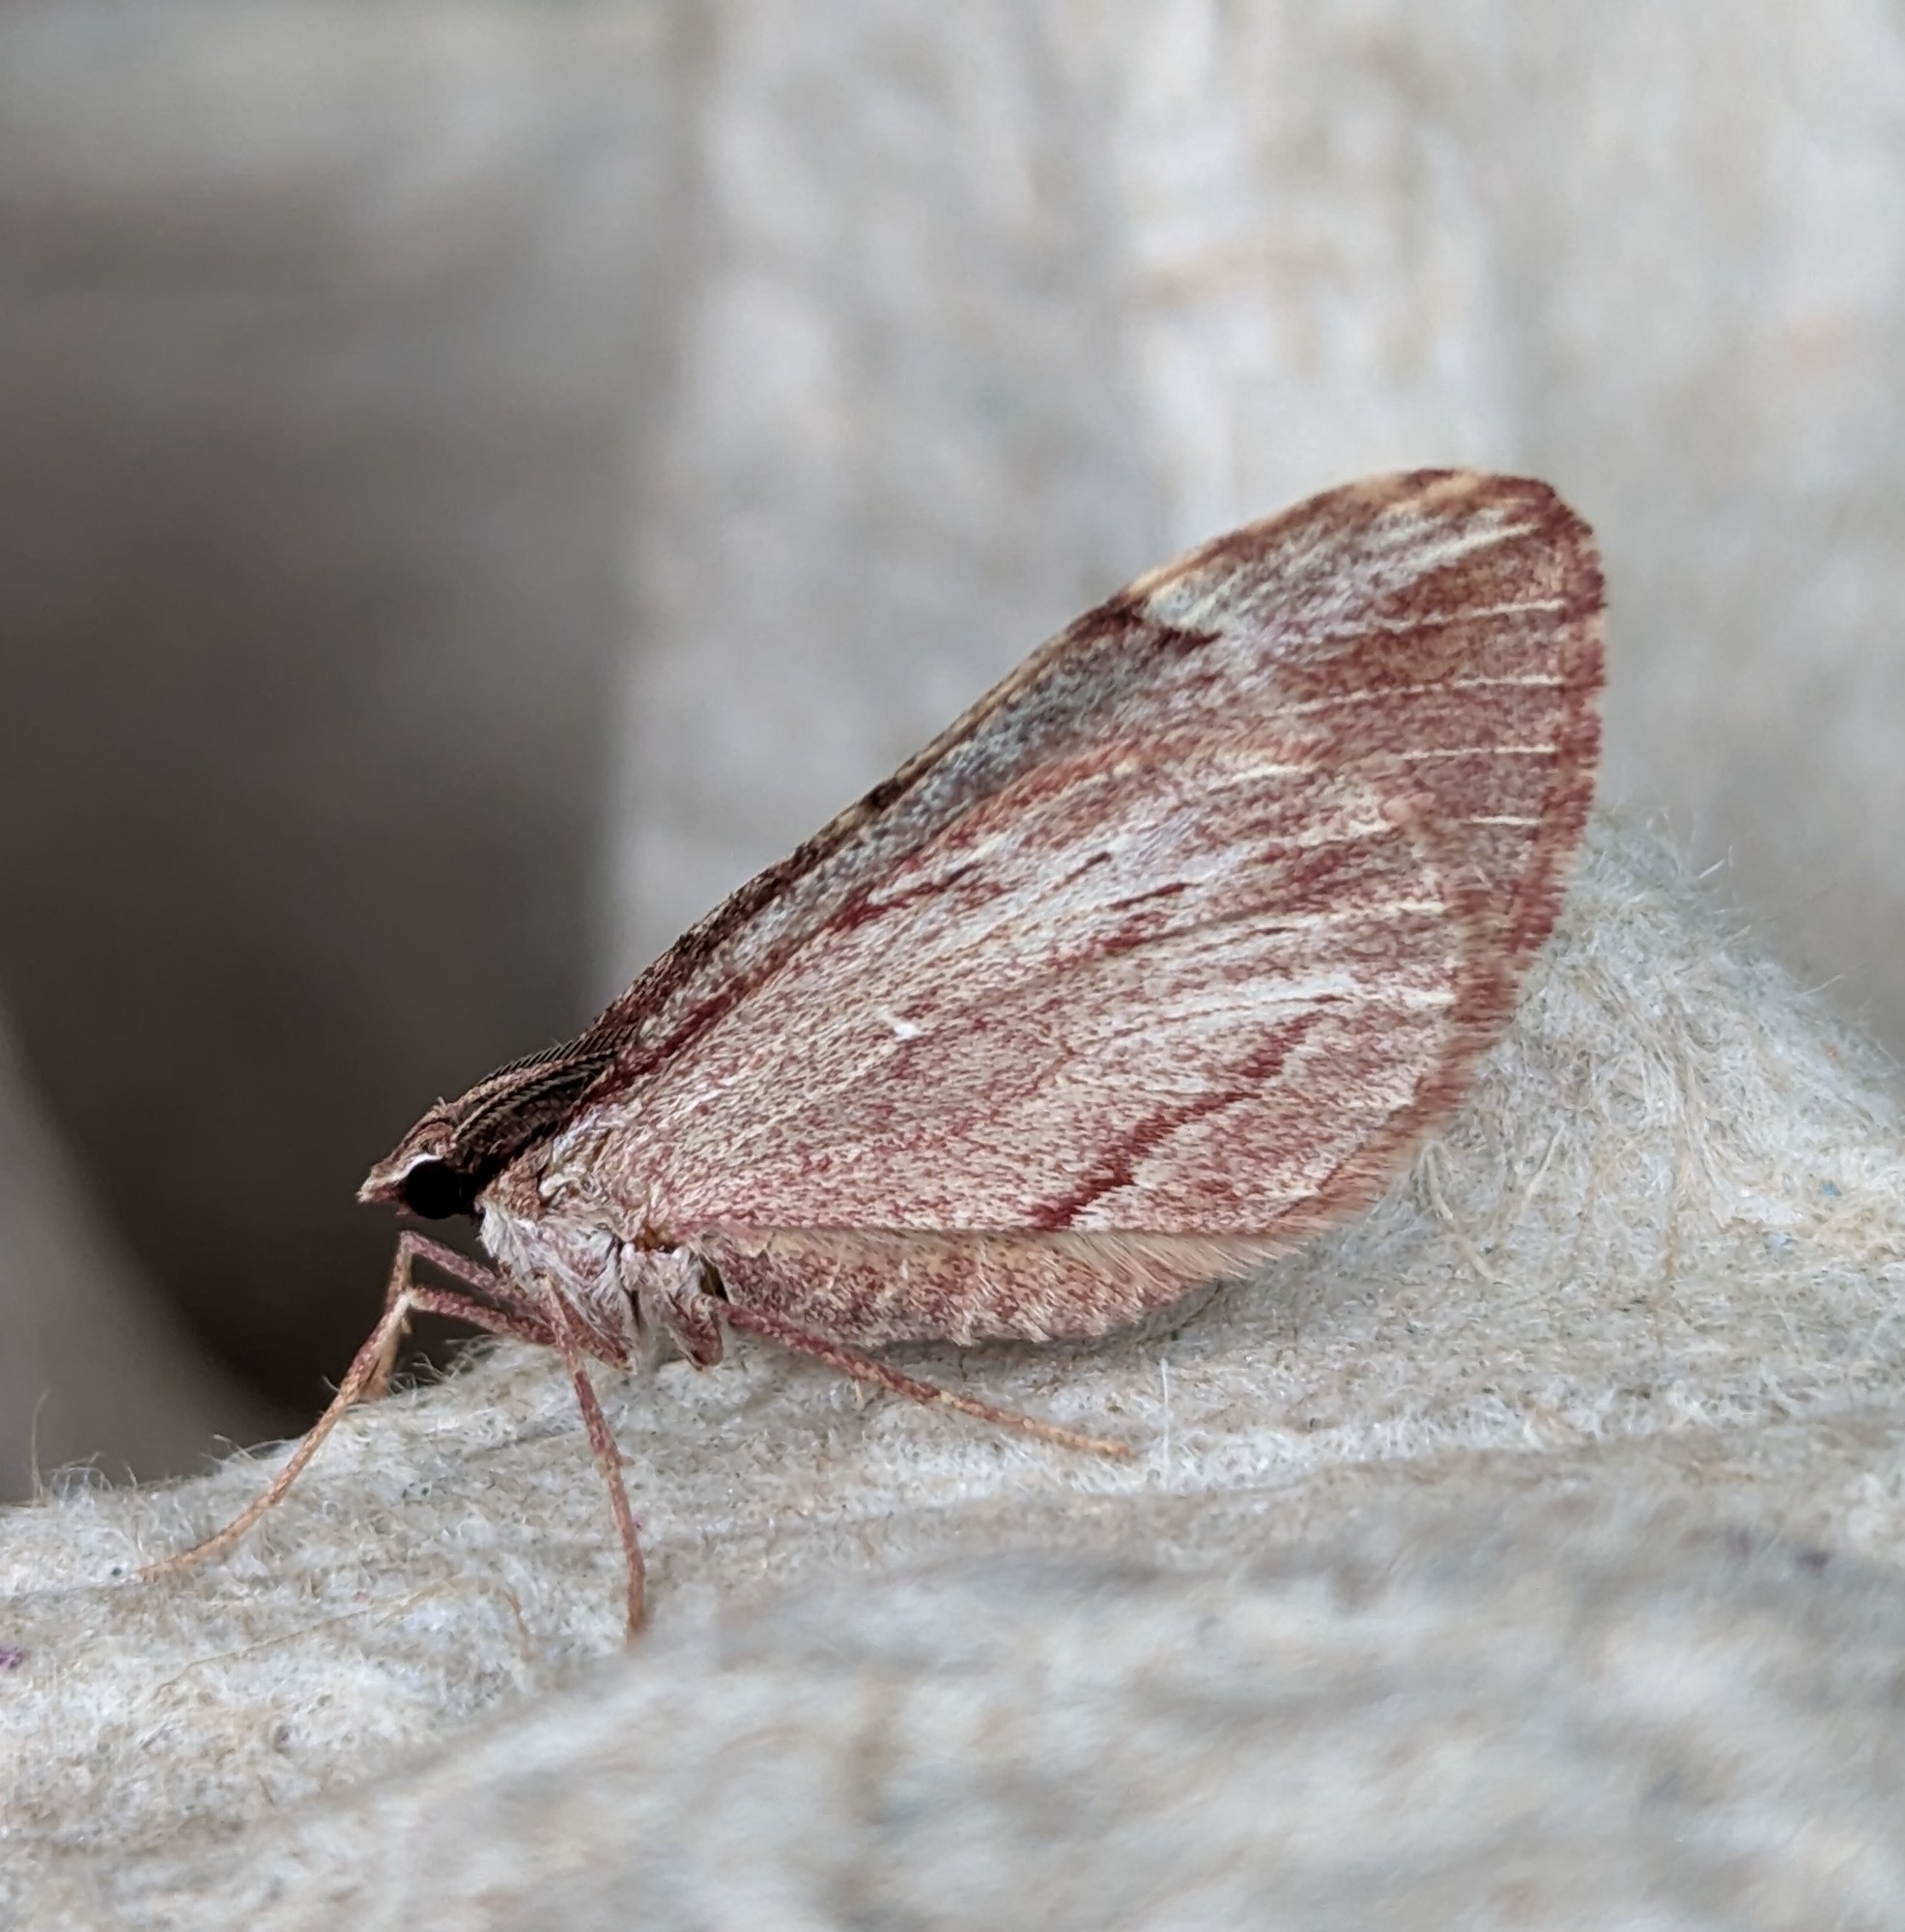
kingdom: Animalia
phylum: Arthropoda
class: Insecta
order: Lepidoptera
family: Geometridae
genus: Stamnoctenis
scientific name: Stamnoctenis pearsalli
